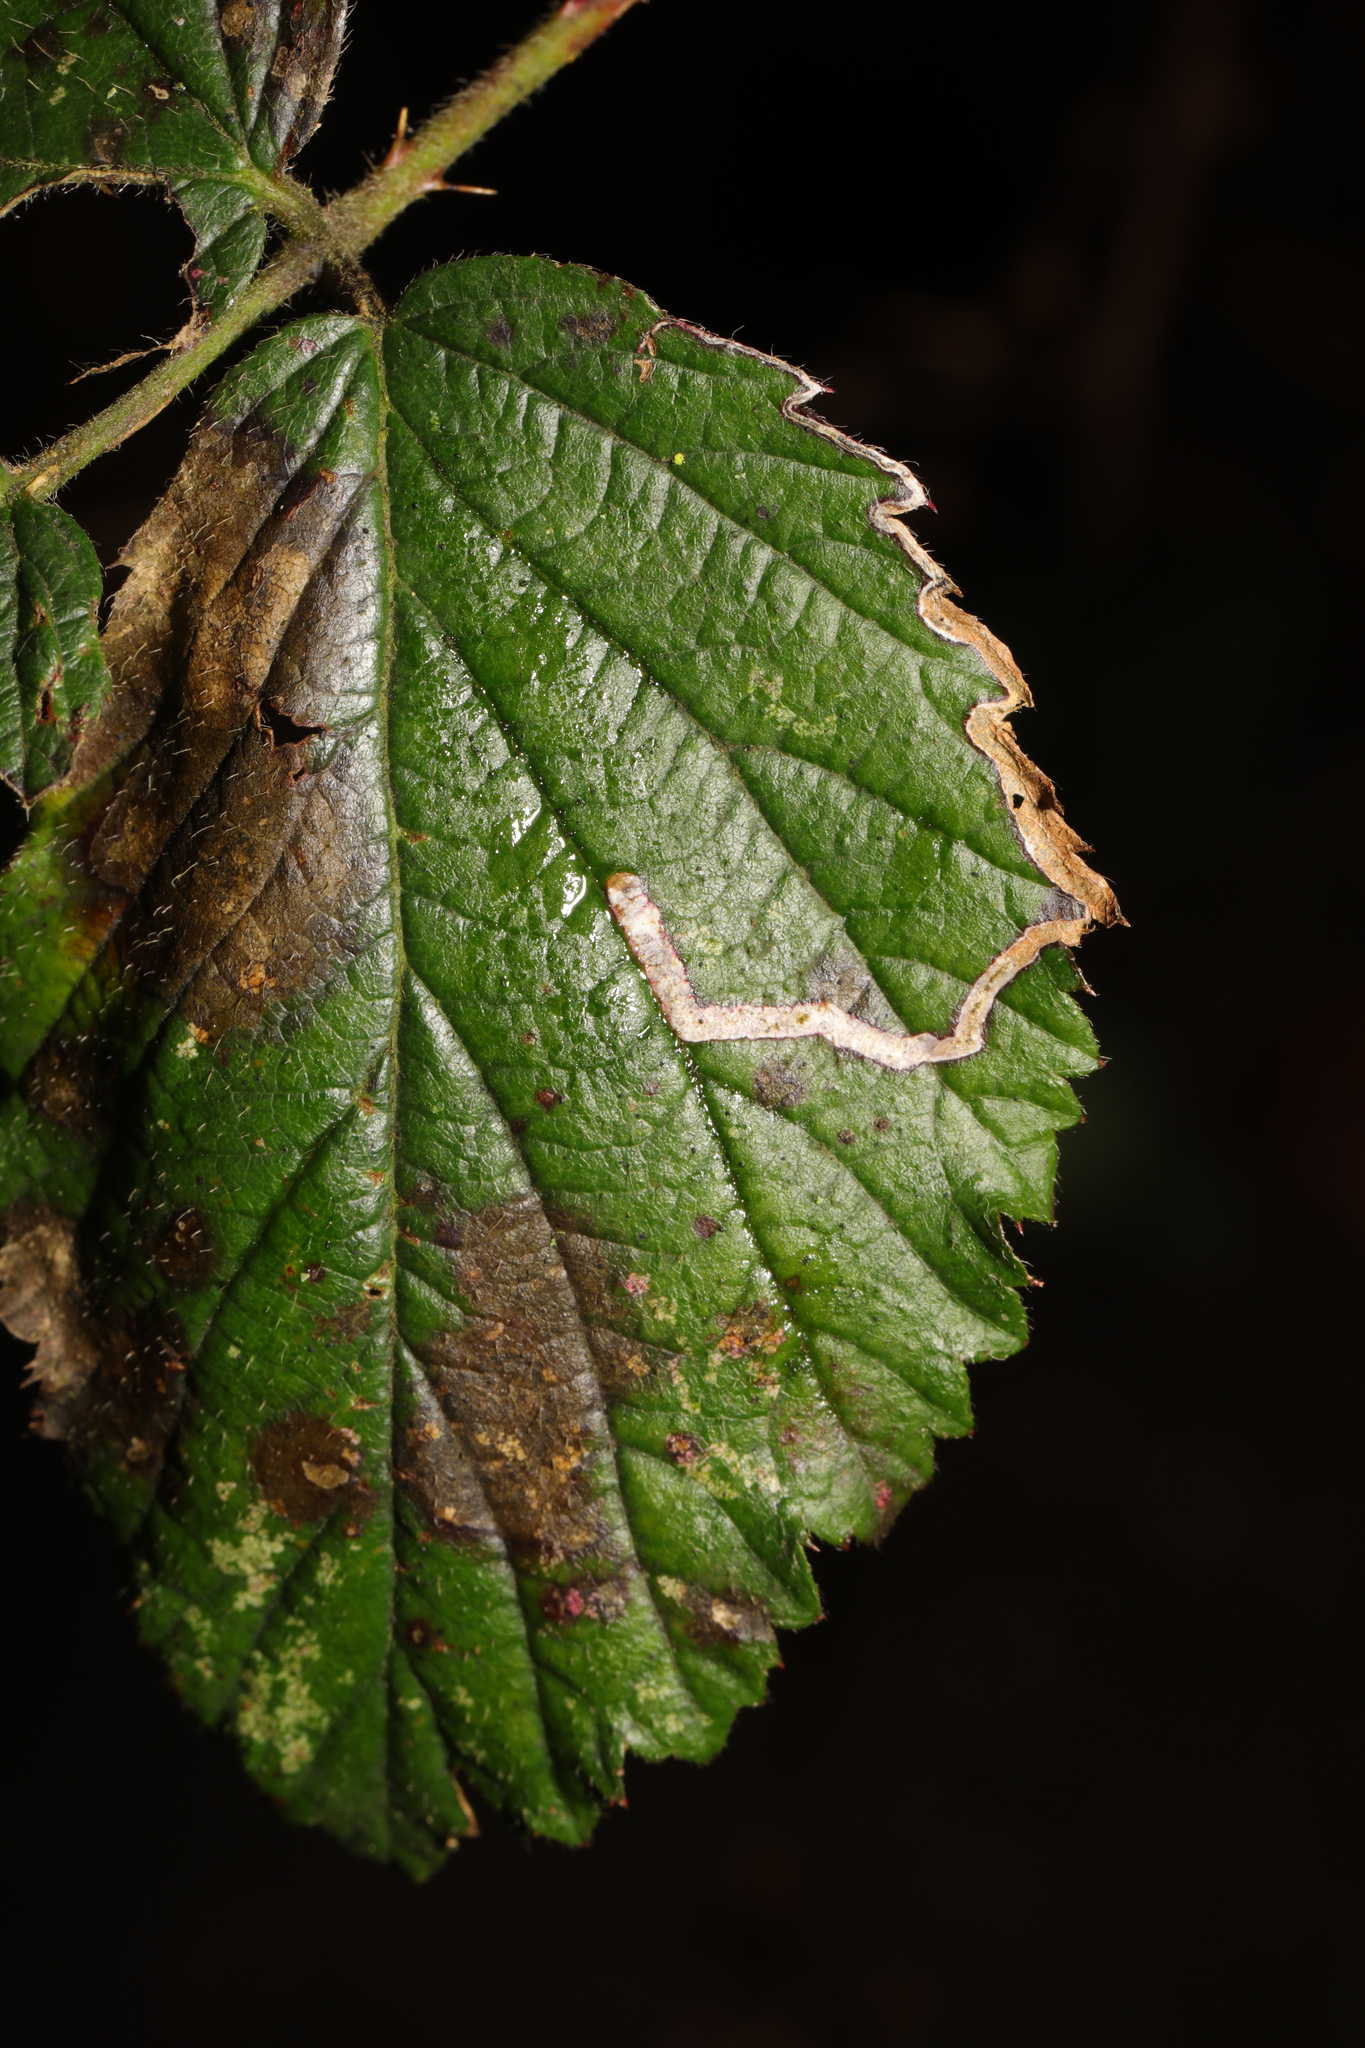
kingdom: Animalia
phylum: Arthropoda
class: Insecta
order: Lepidoptera
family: Nepticulidae
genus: Stigmella
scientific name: Stigmella aurella
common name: Golden pigmy
